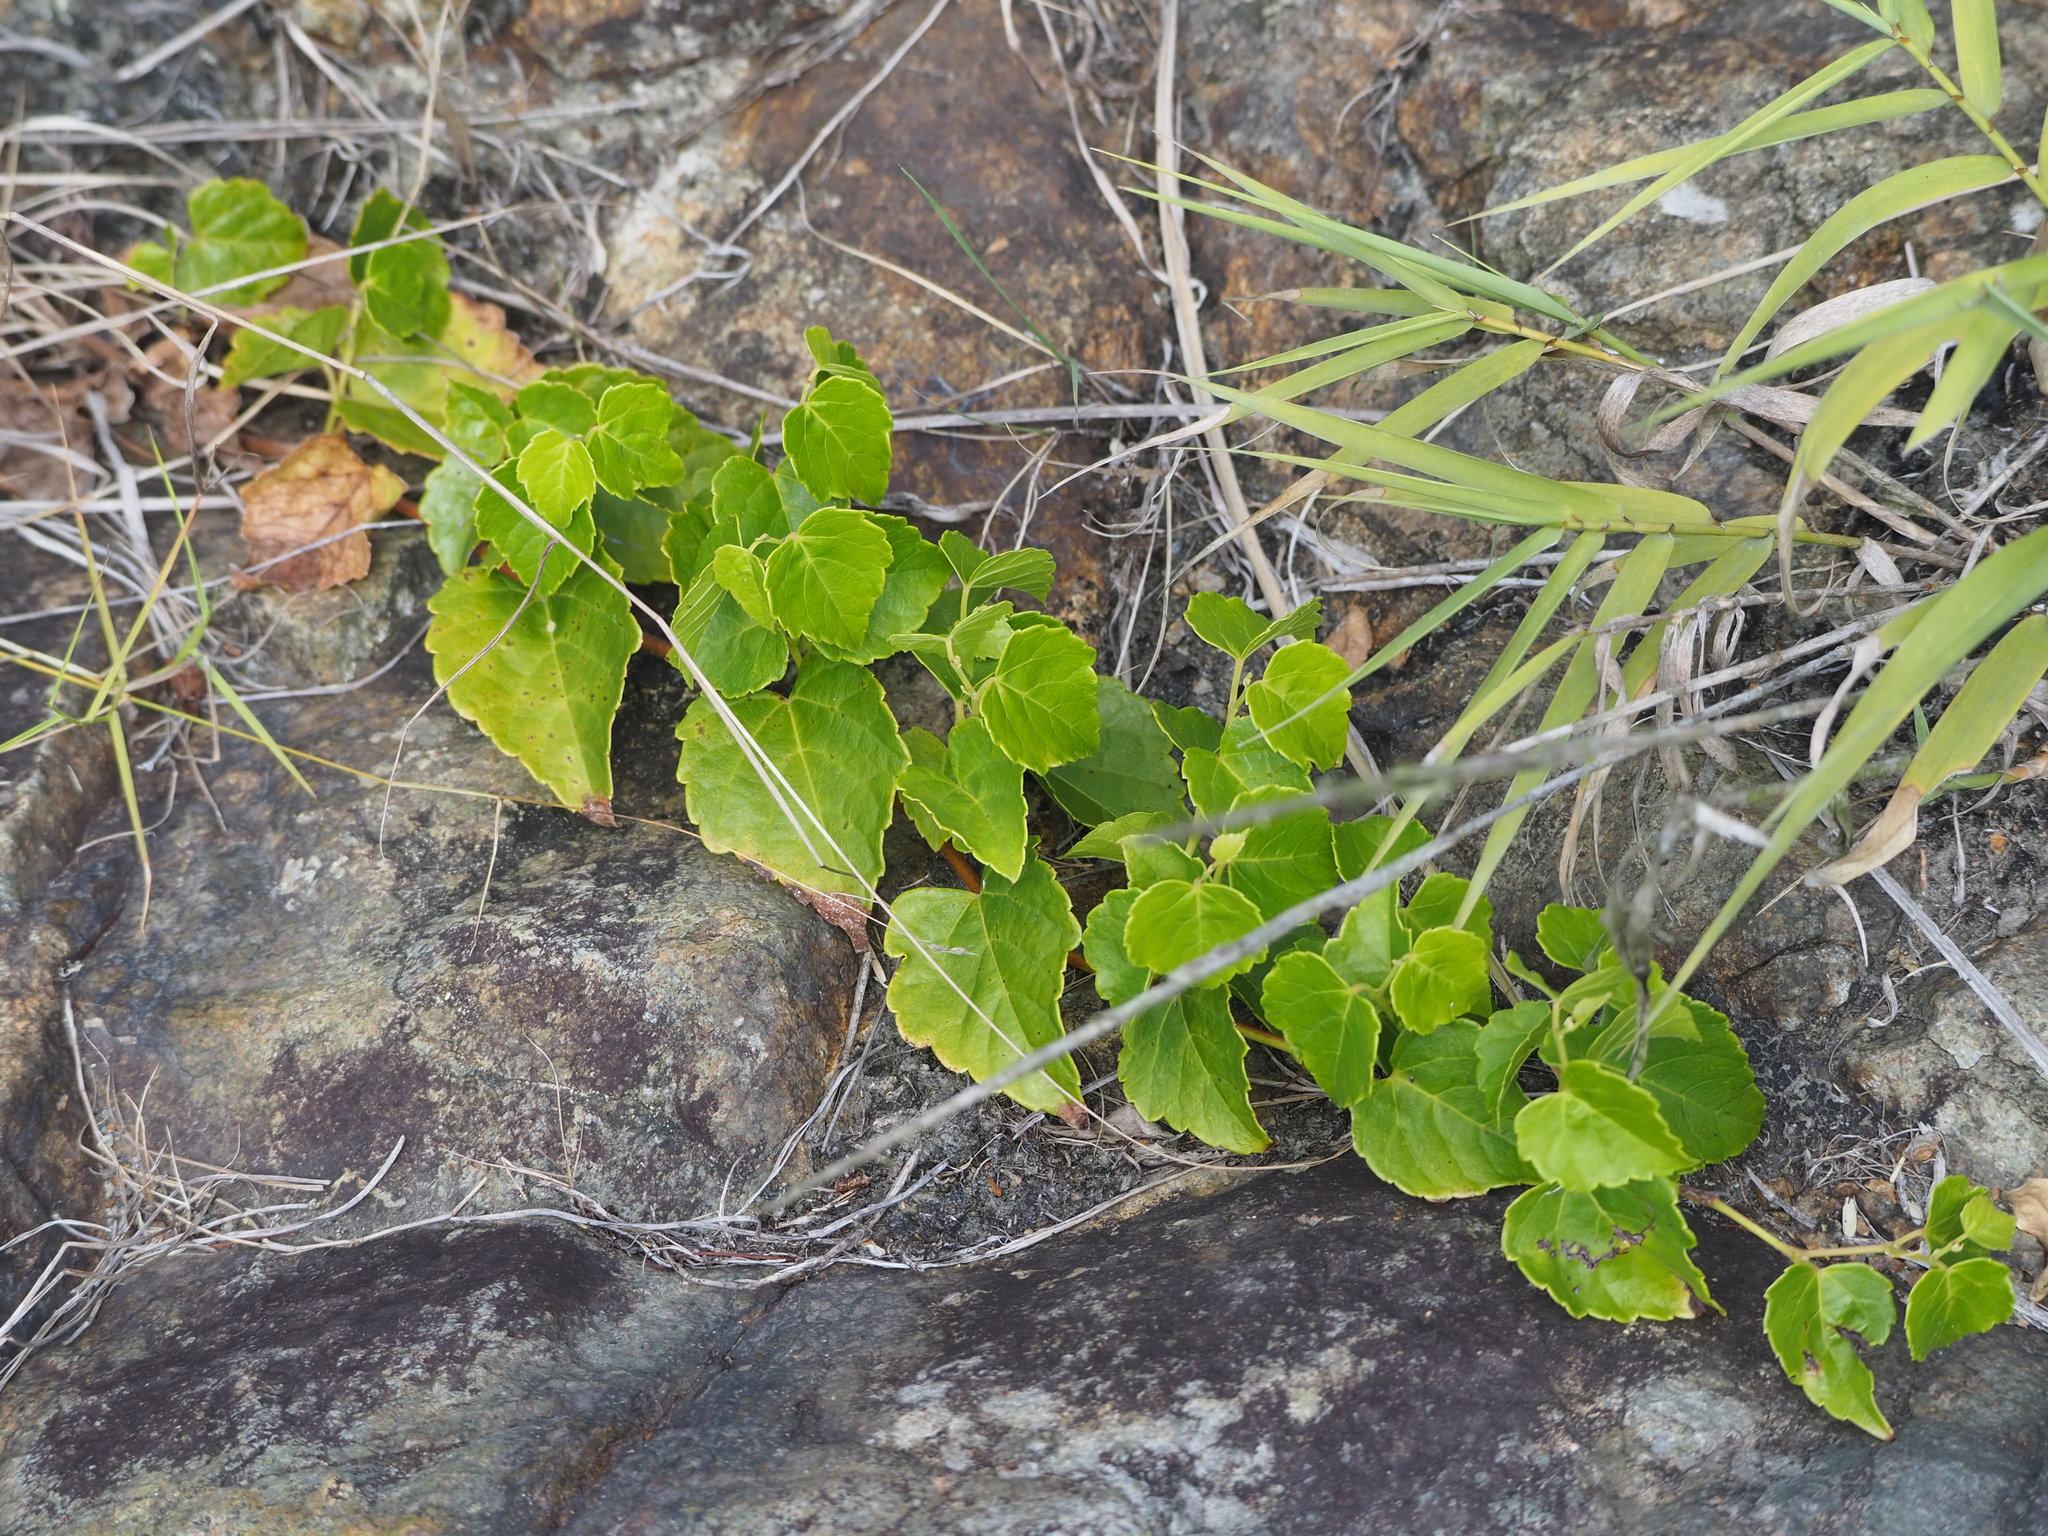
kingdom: Plantae
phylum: Tracheophyta
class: Magnoliopsida
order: Vitales
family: Vitaceae
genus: Ampelopsis
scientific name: Ampelopsis glandulosa
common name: Amur peppervine
